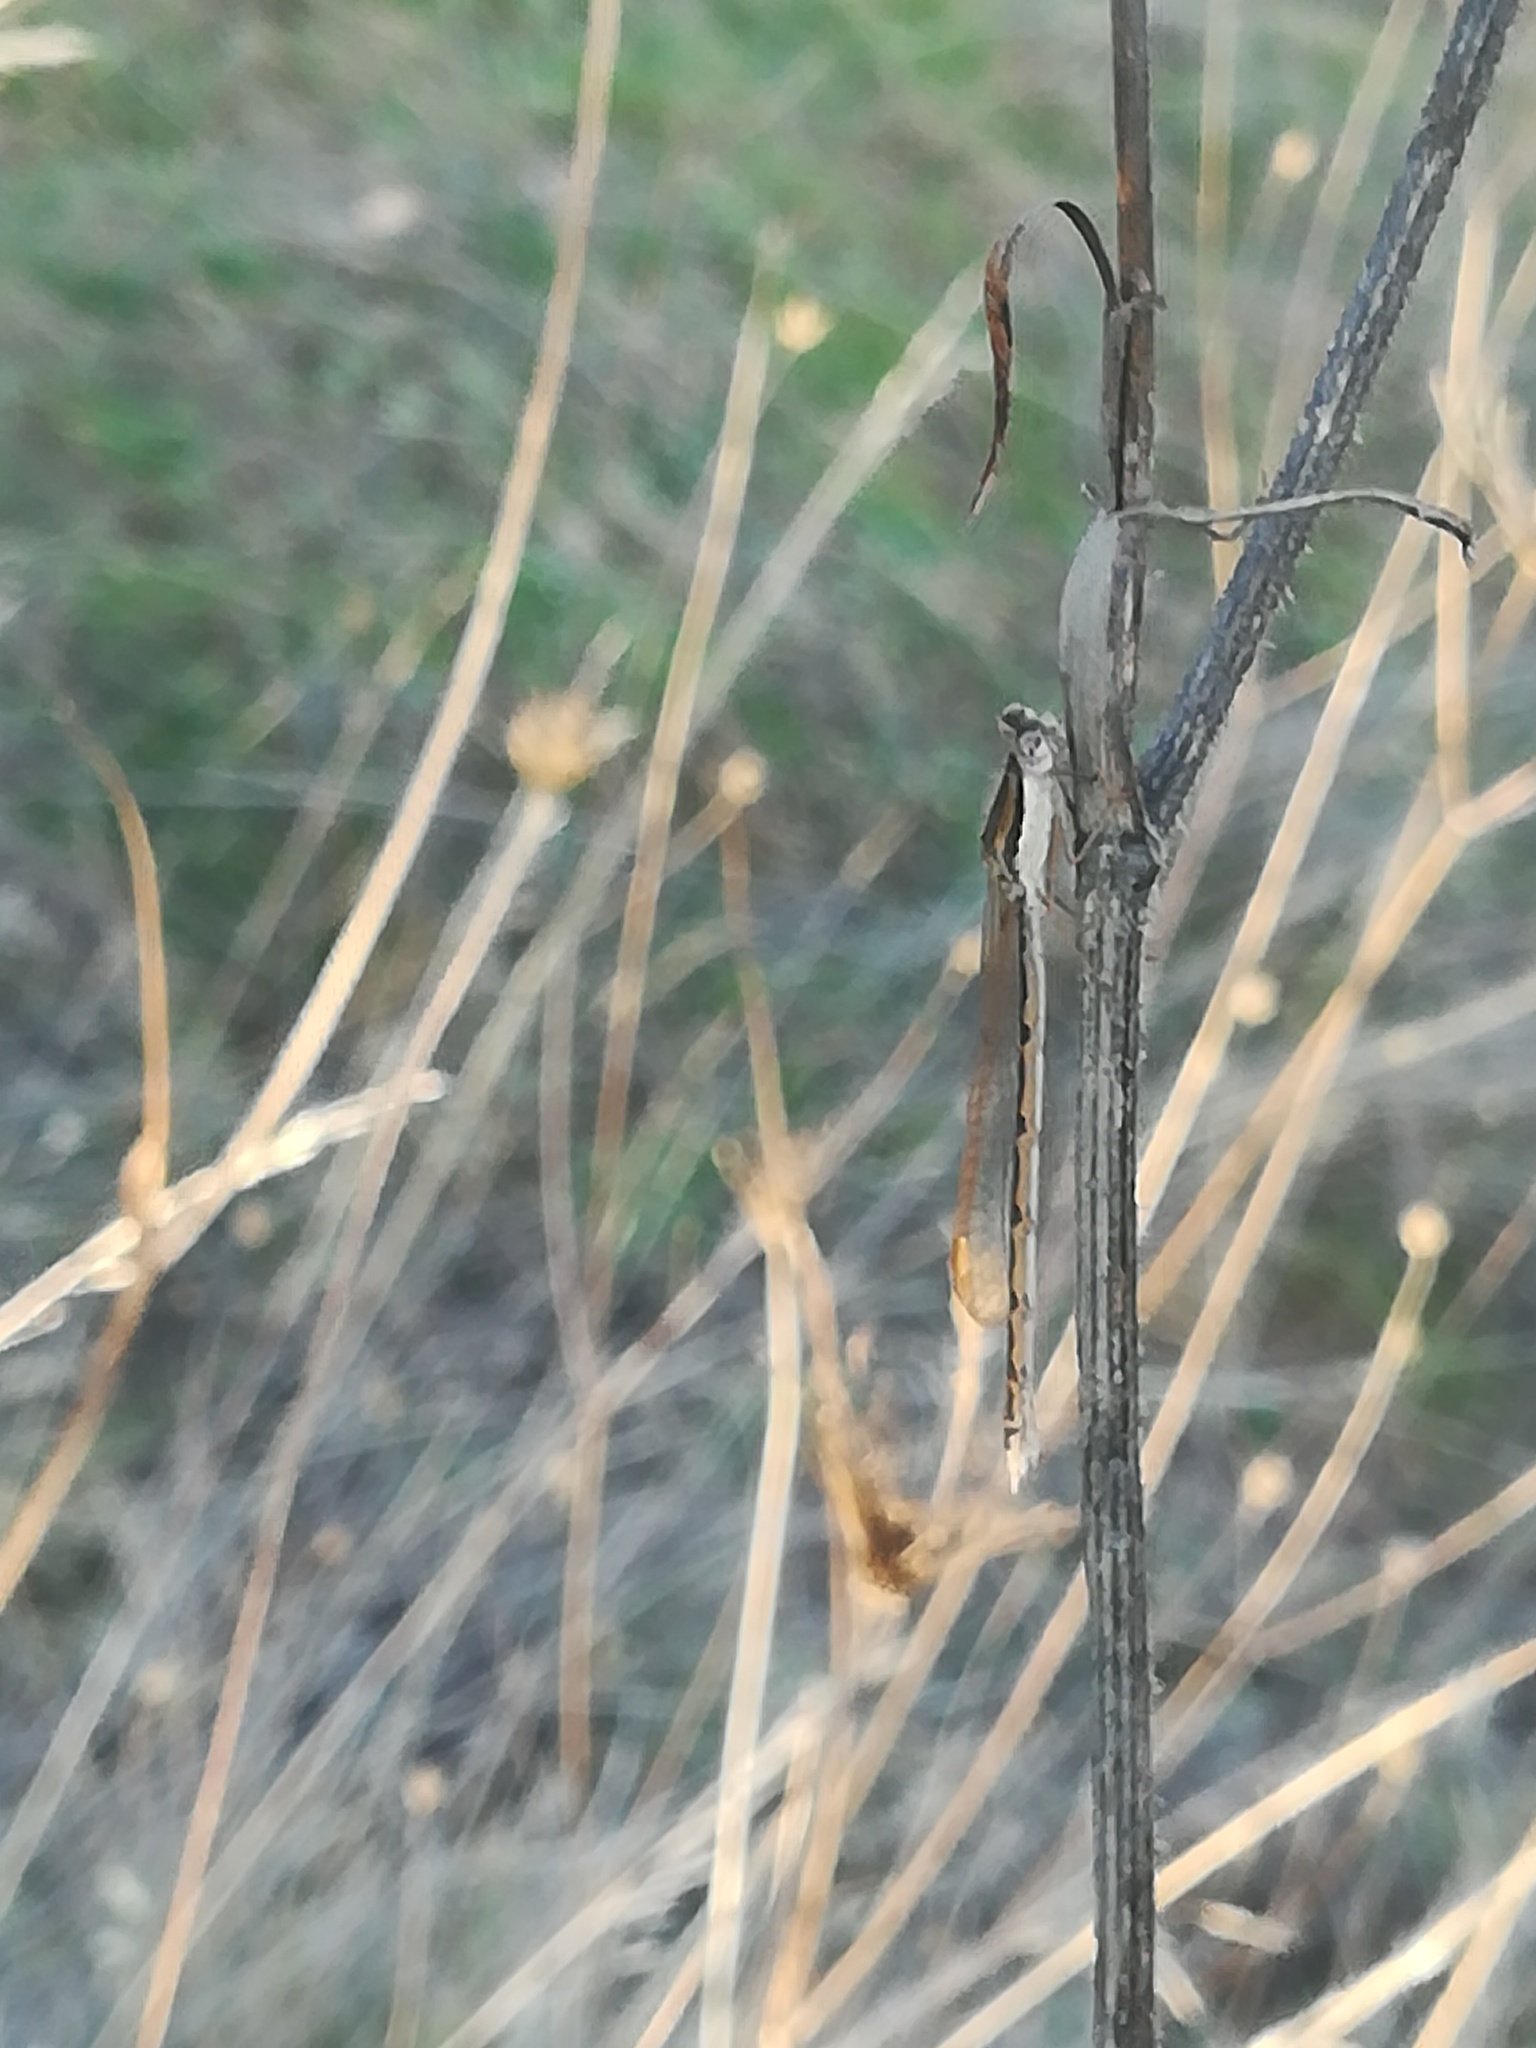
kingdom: Animalia
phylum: Arthropoda
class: Insecta
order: Odonata
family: Lestidae
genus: Sympecma
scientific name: Sympecma fusca
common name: Common winter damsel
